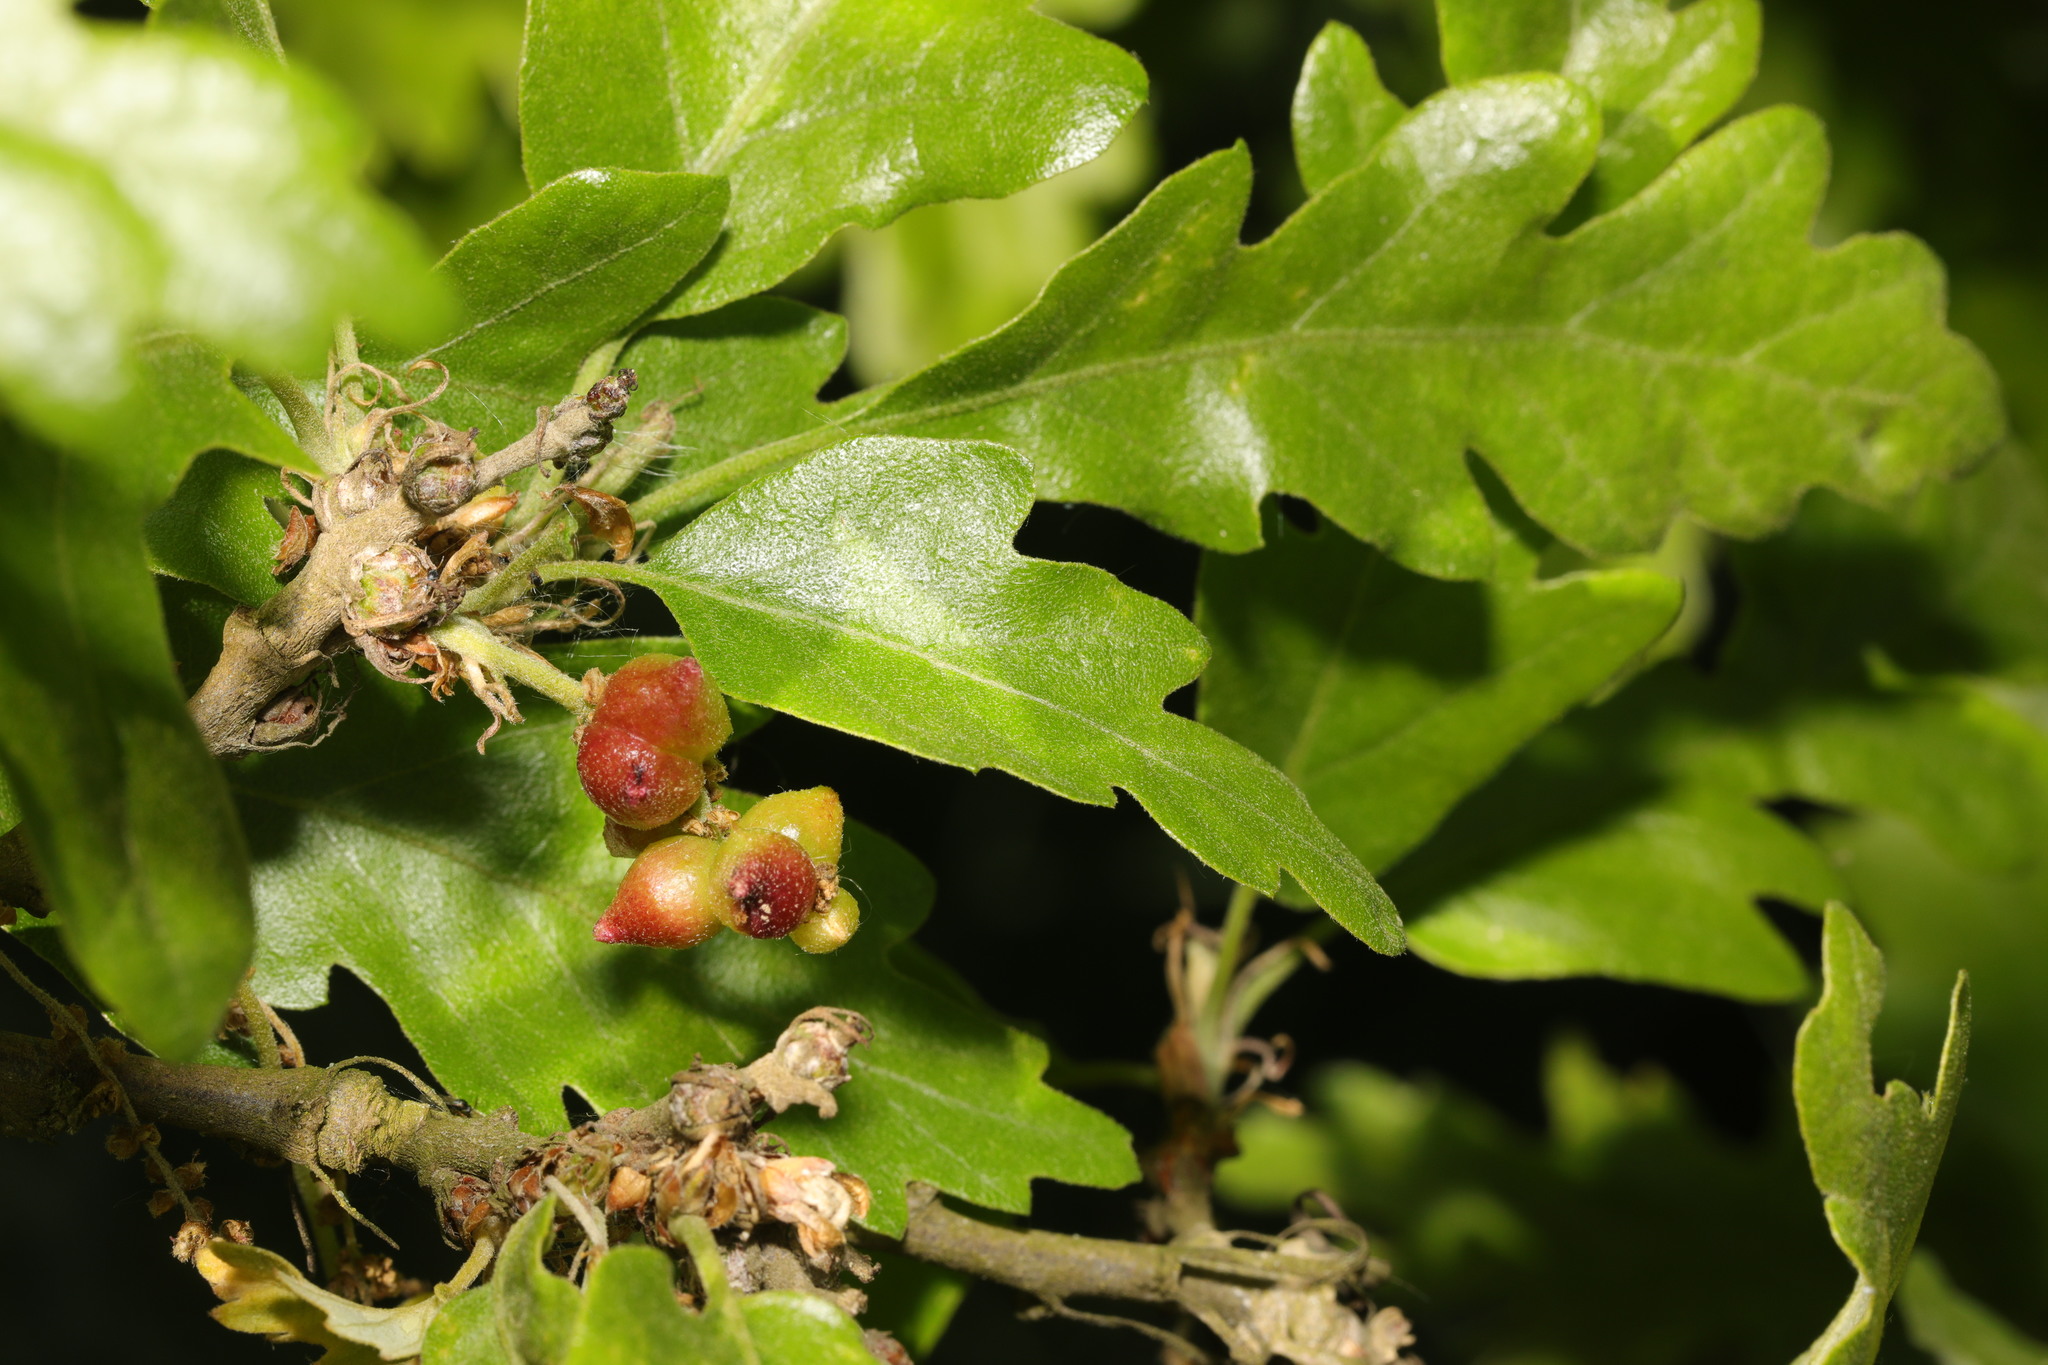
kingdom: Animalia
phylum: Arthropoda
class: Insecta
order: Hymenoptera
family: Cynipidae
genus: Andricus
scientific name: Andricus grossulariae
